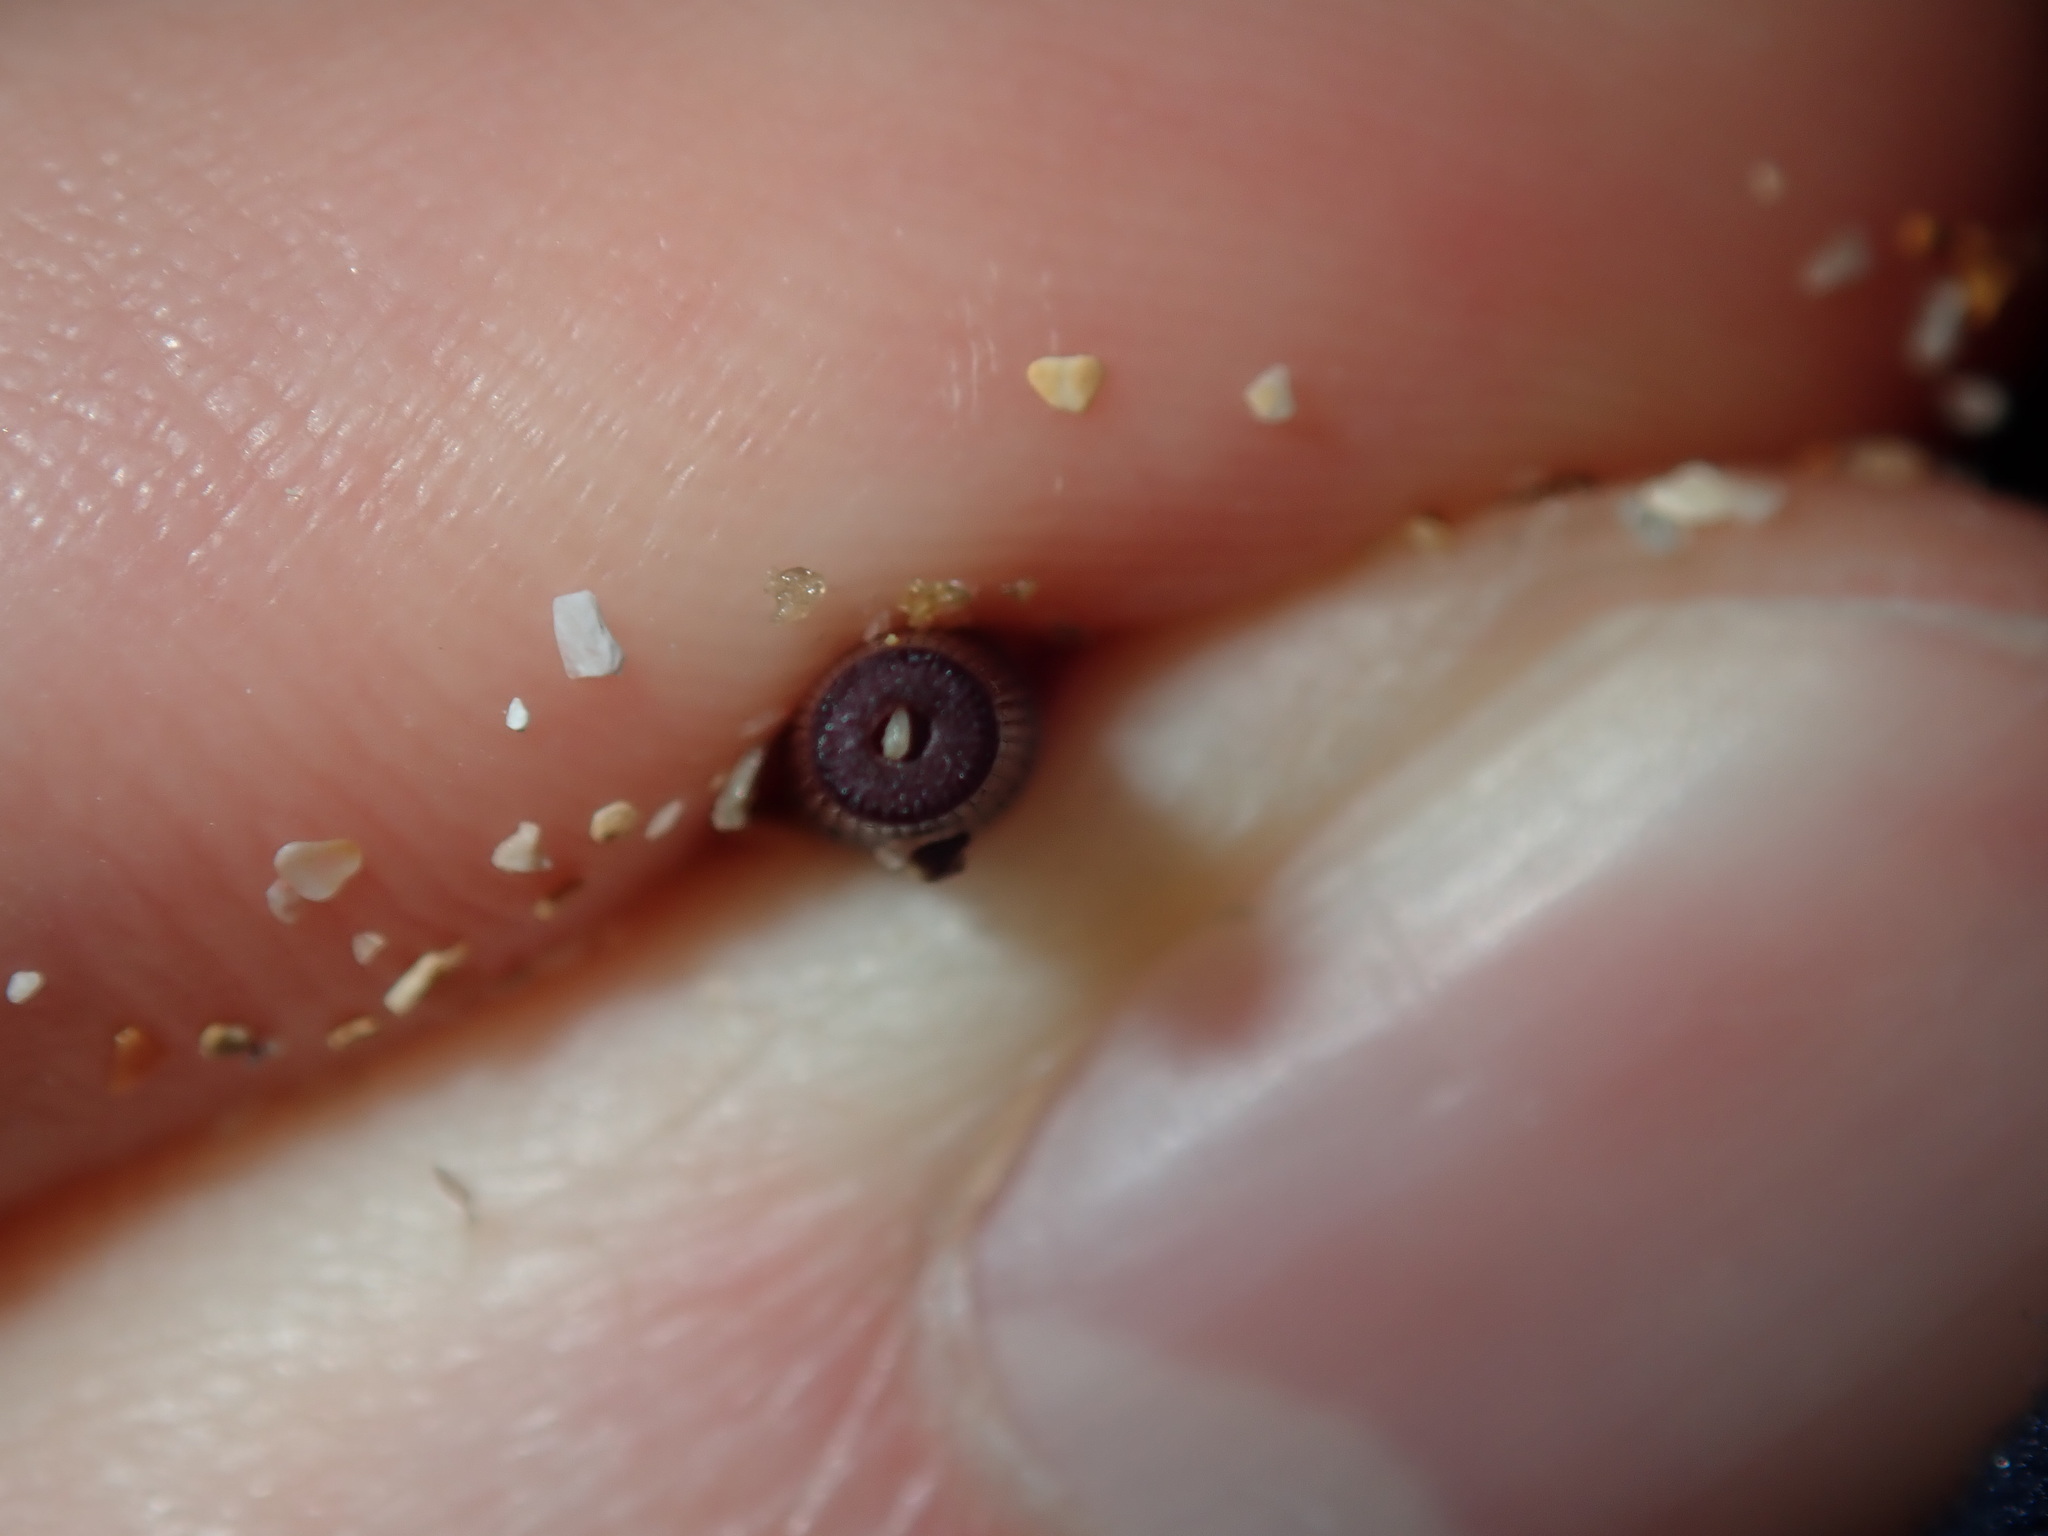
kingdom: Animalia
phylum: Echinodermata
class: Echinoidea
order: Diadematoida
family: Diadematidae
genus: Centrostephanus
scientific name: Centrostephanus rodgersii
